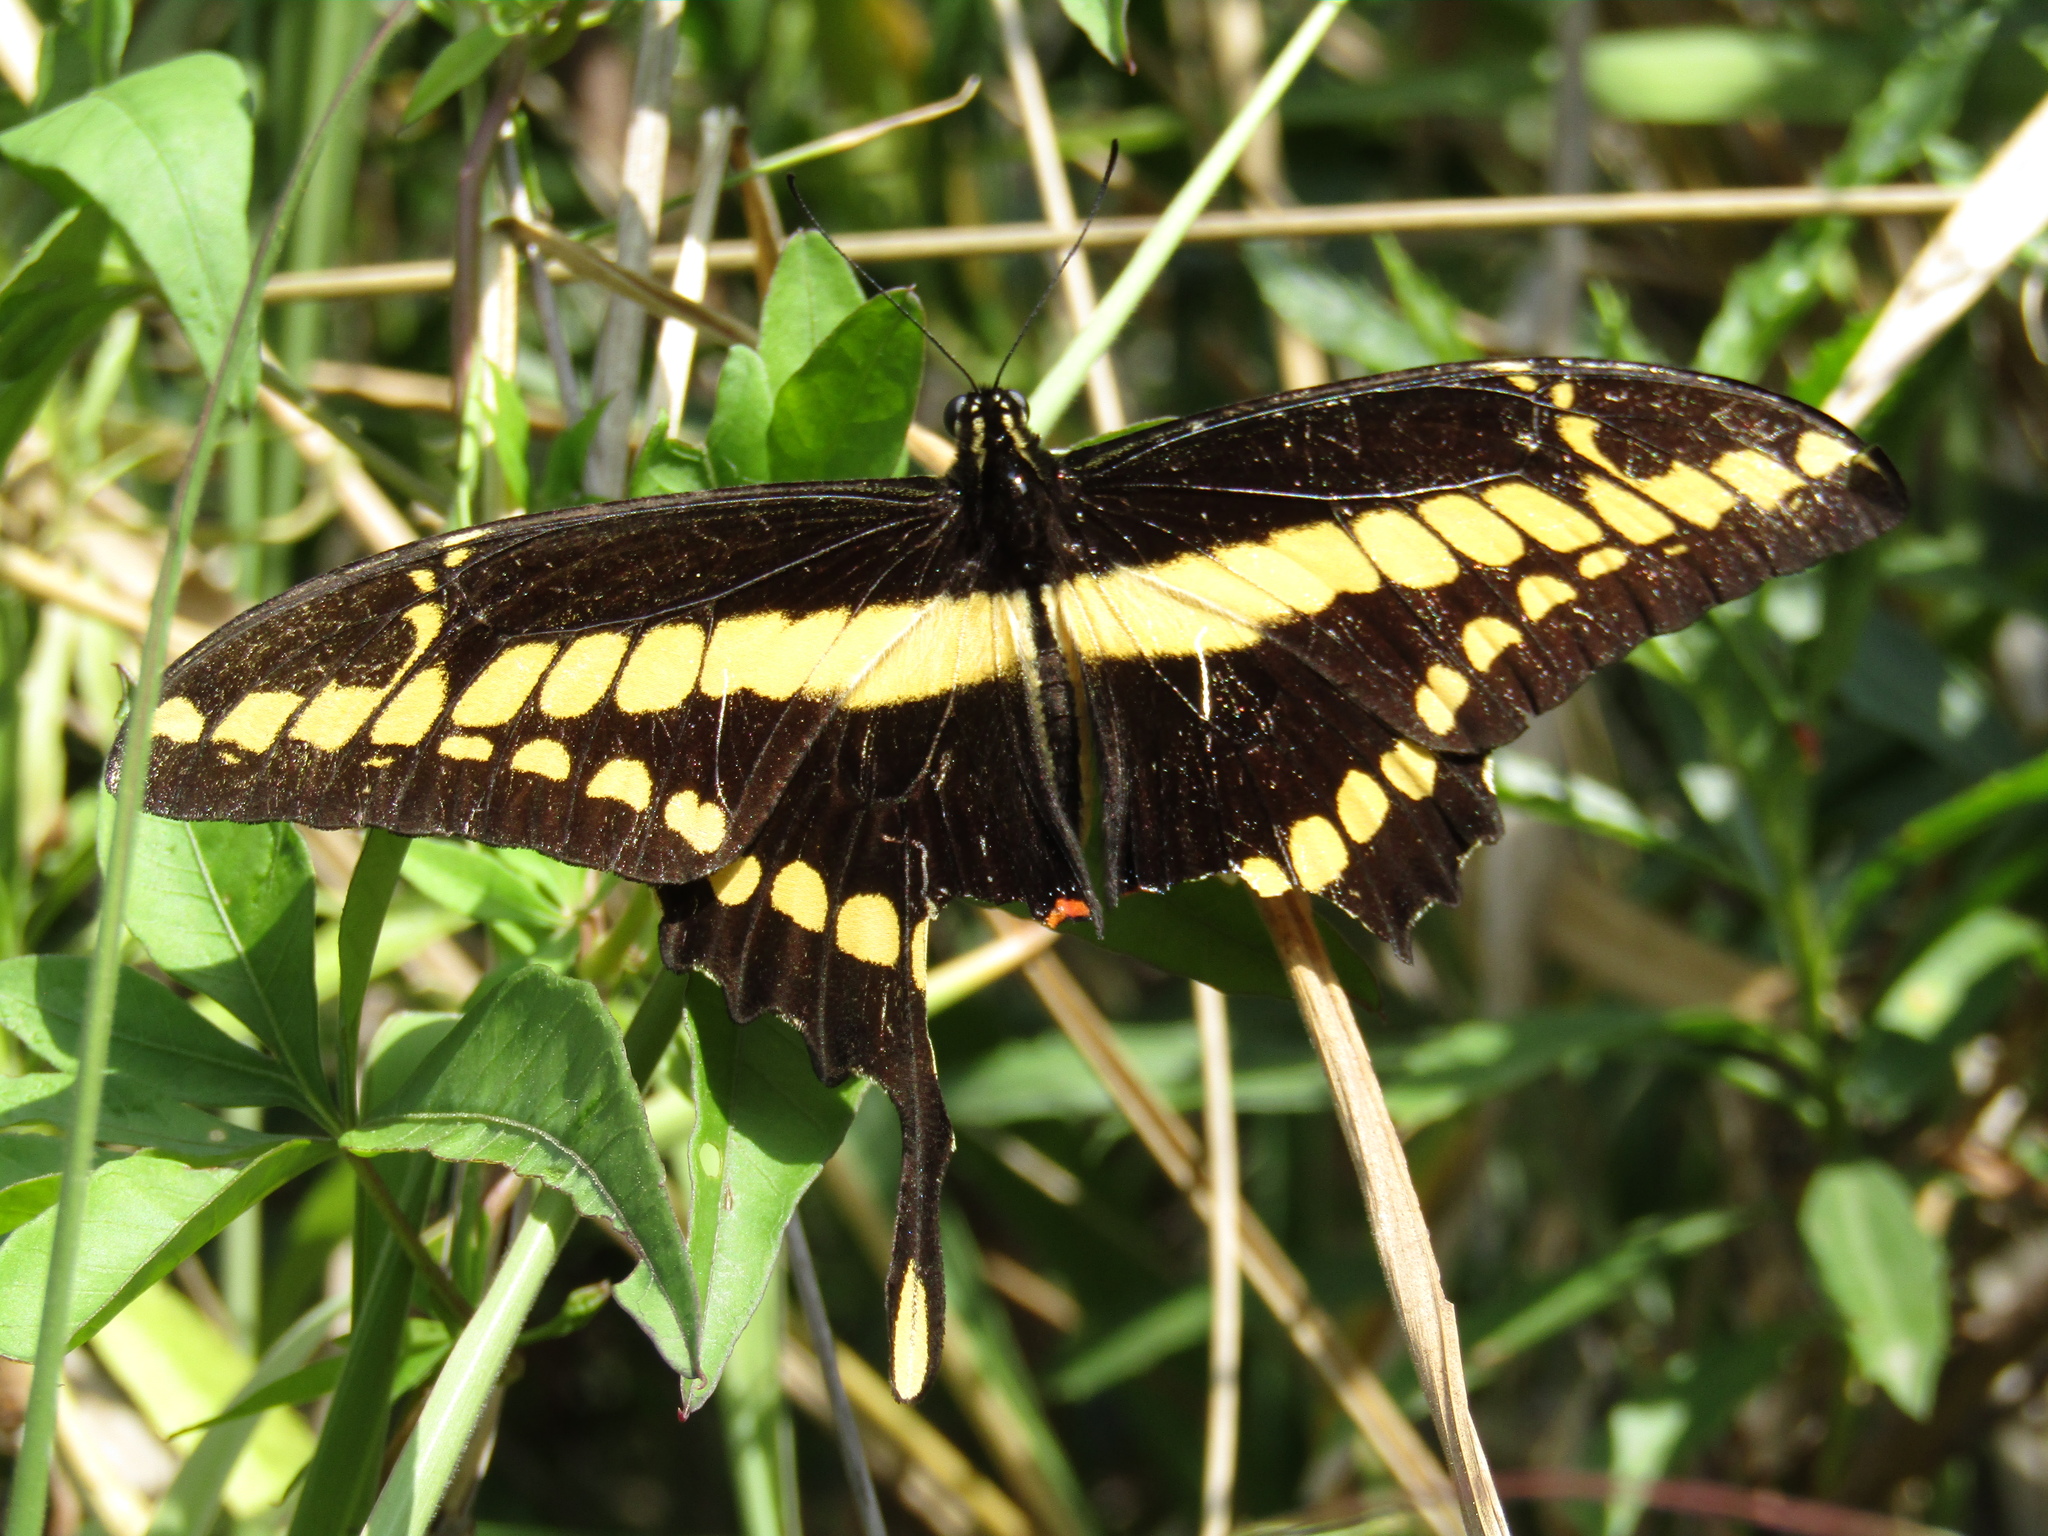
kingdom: Animalia
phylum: Arthropoda
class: Insecta
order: Lepidoptera
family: Papilionidae
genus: Papilio
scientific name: Papilio thoas
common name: King swallowtail
